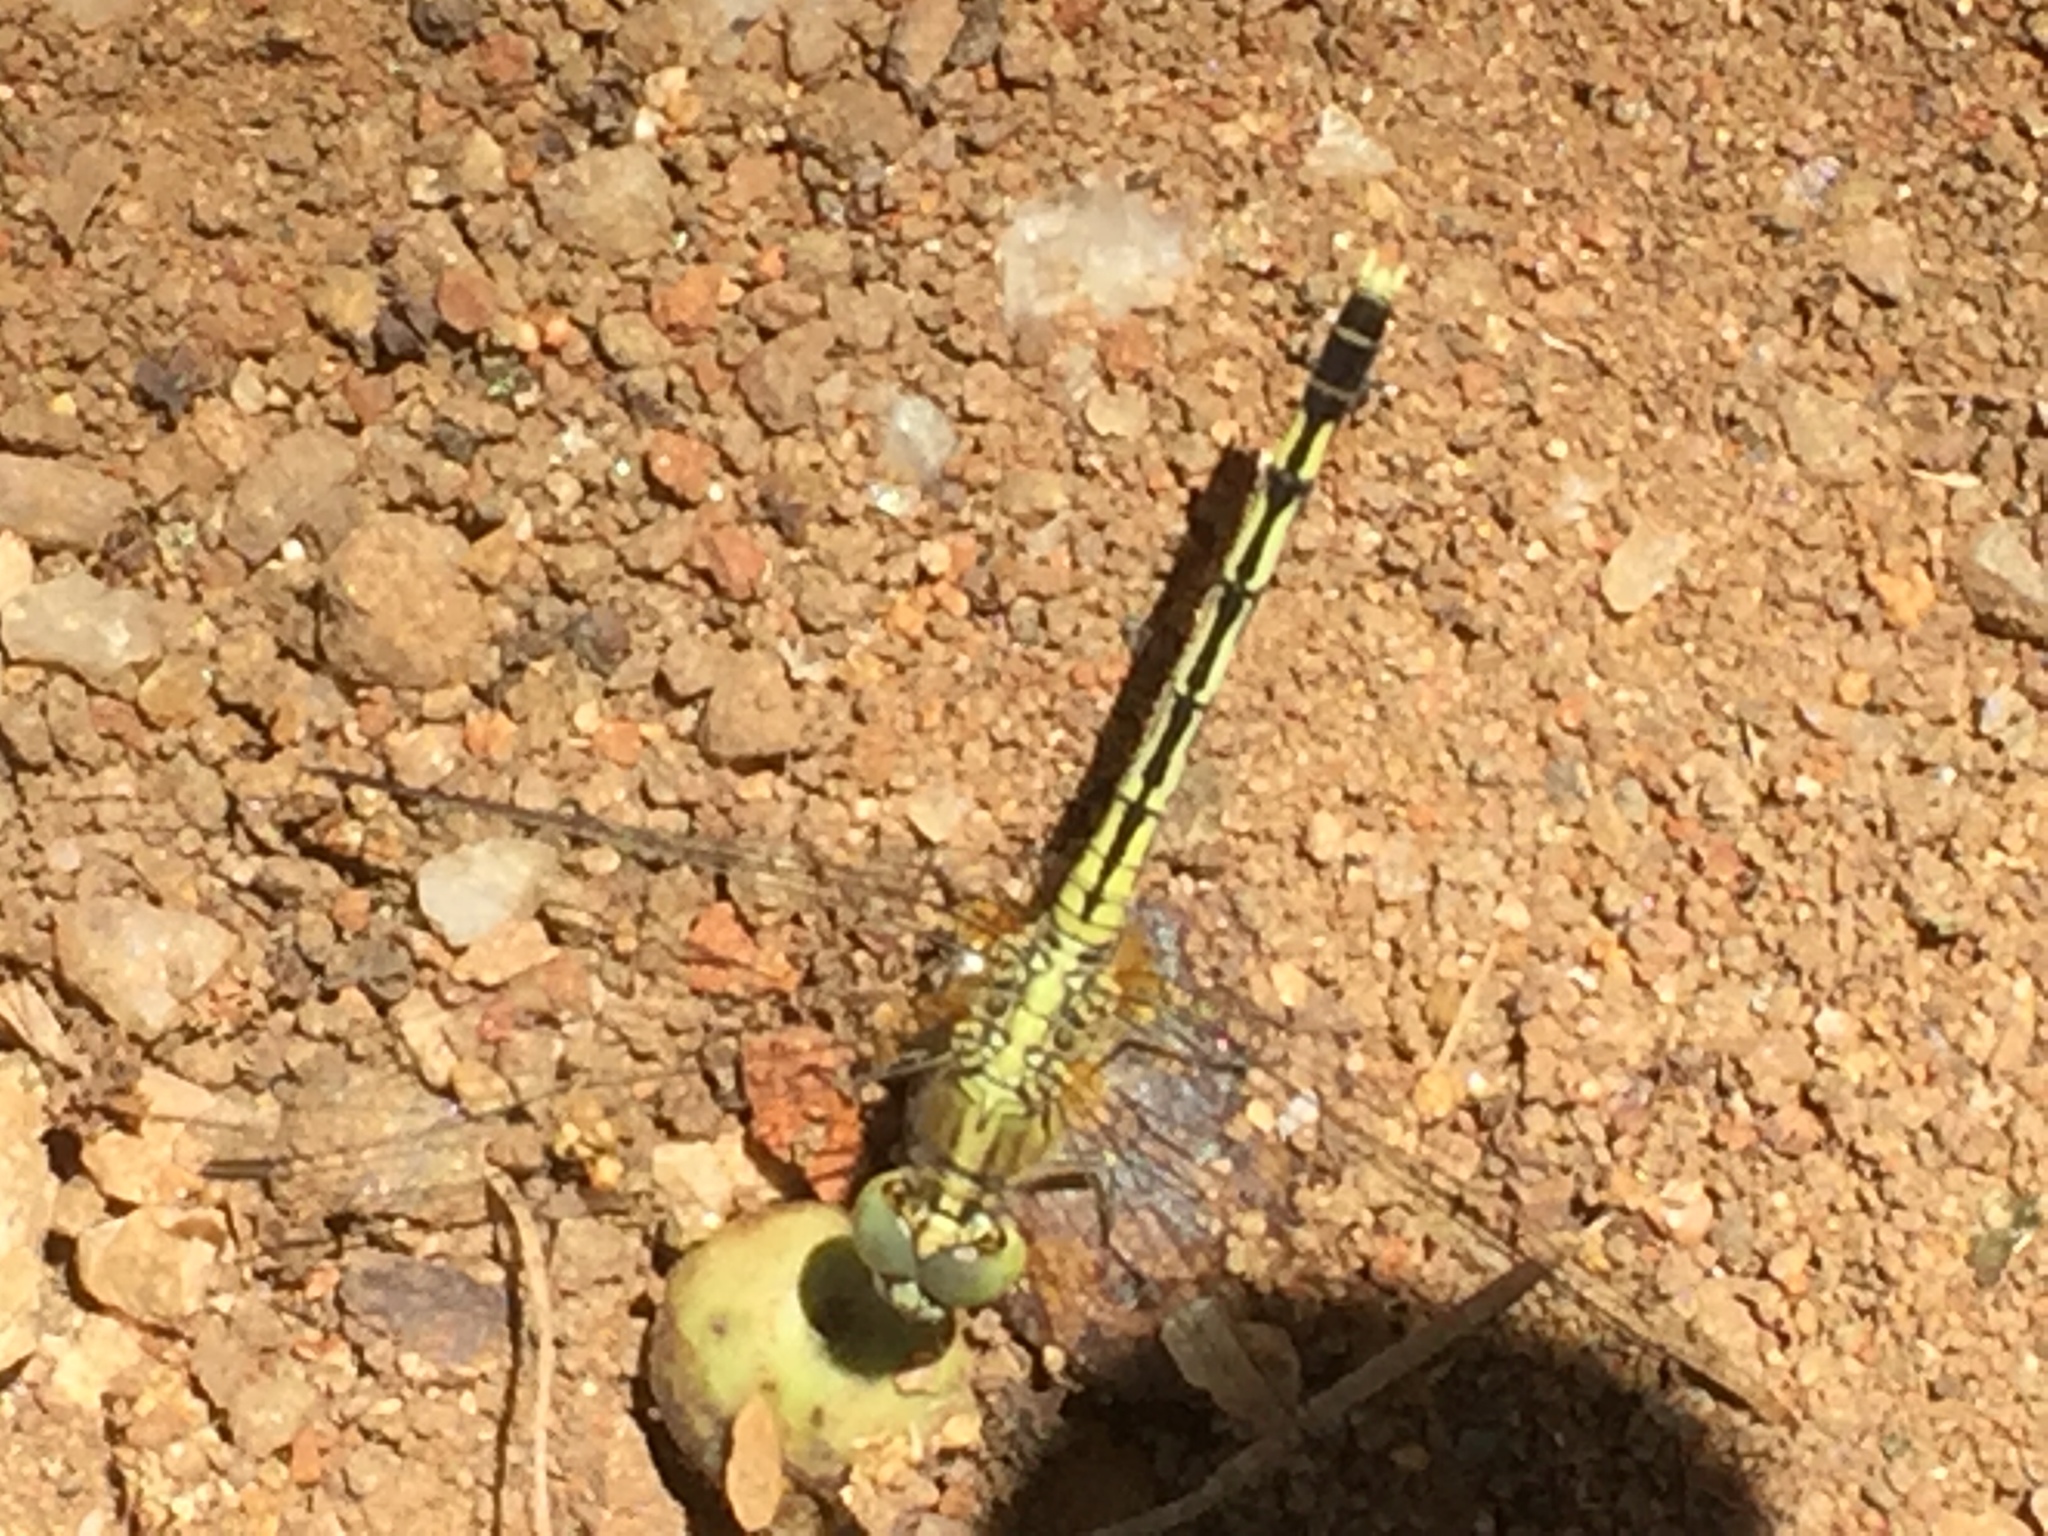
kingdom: Animalia
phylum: Arthropoda
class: Insecta
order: Odonata
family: Libellulidae
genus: Diplacodes
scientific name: Diplacodes trivialis
